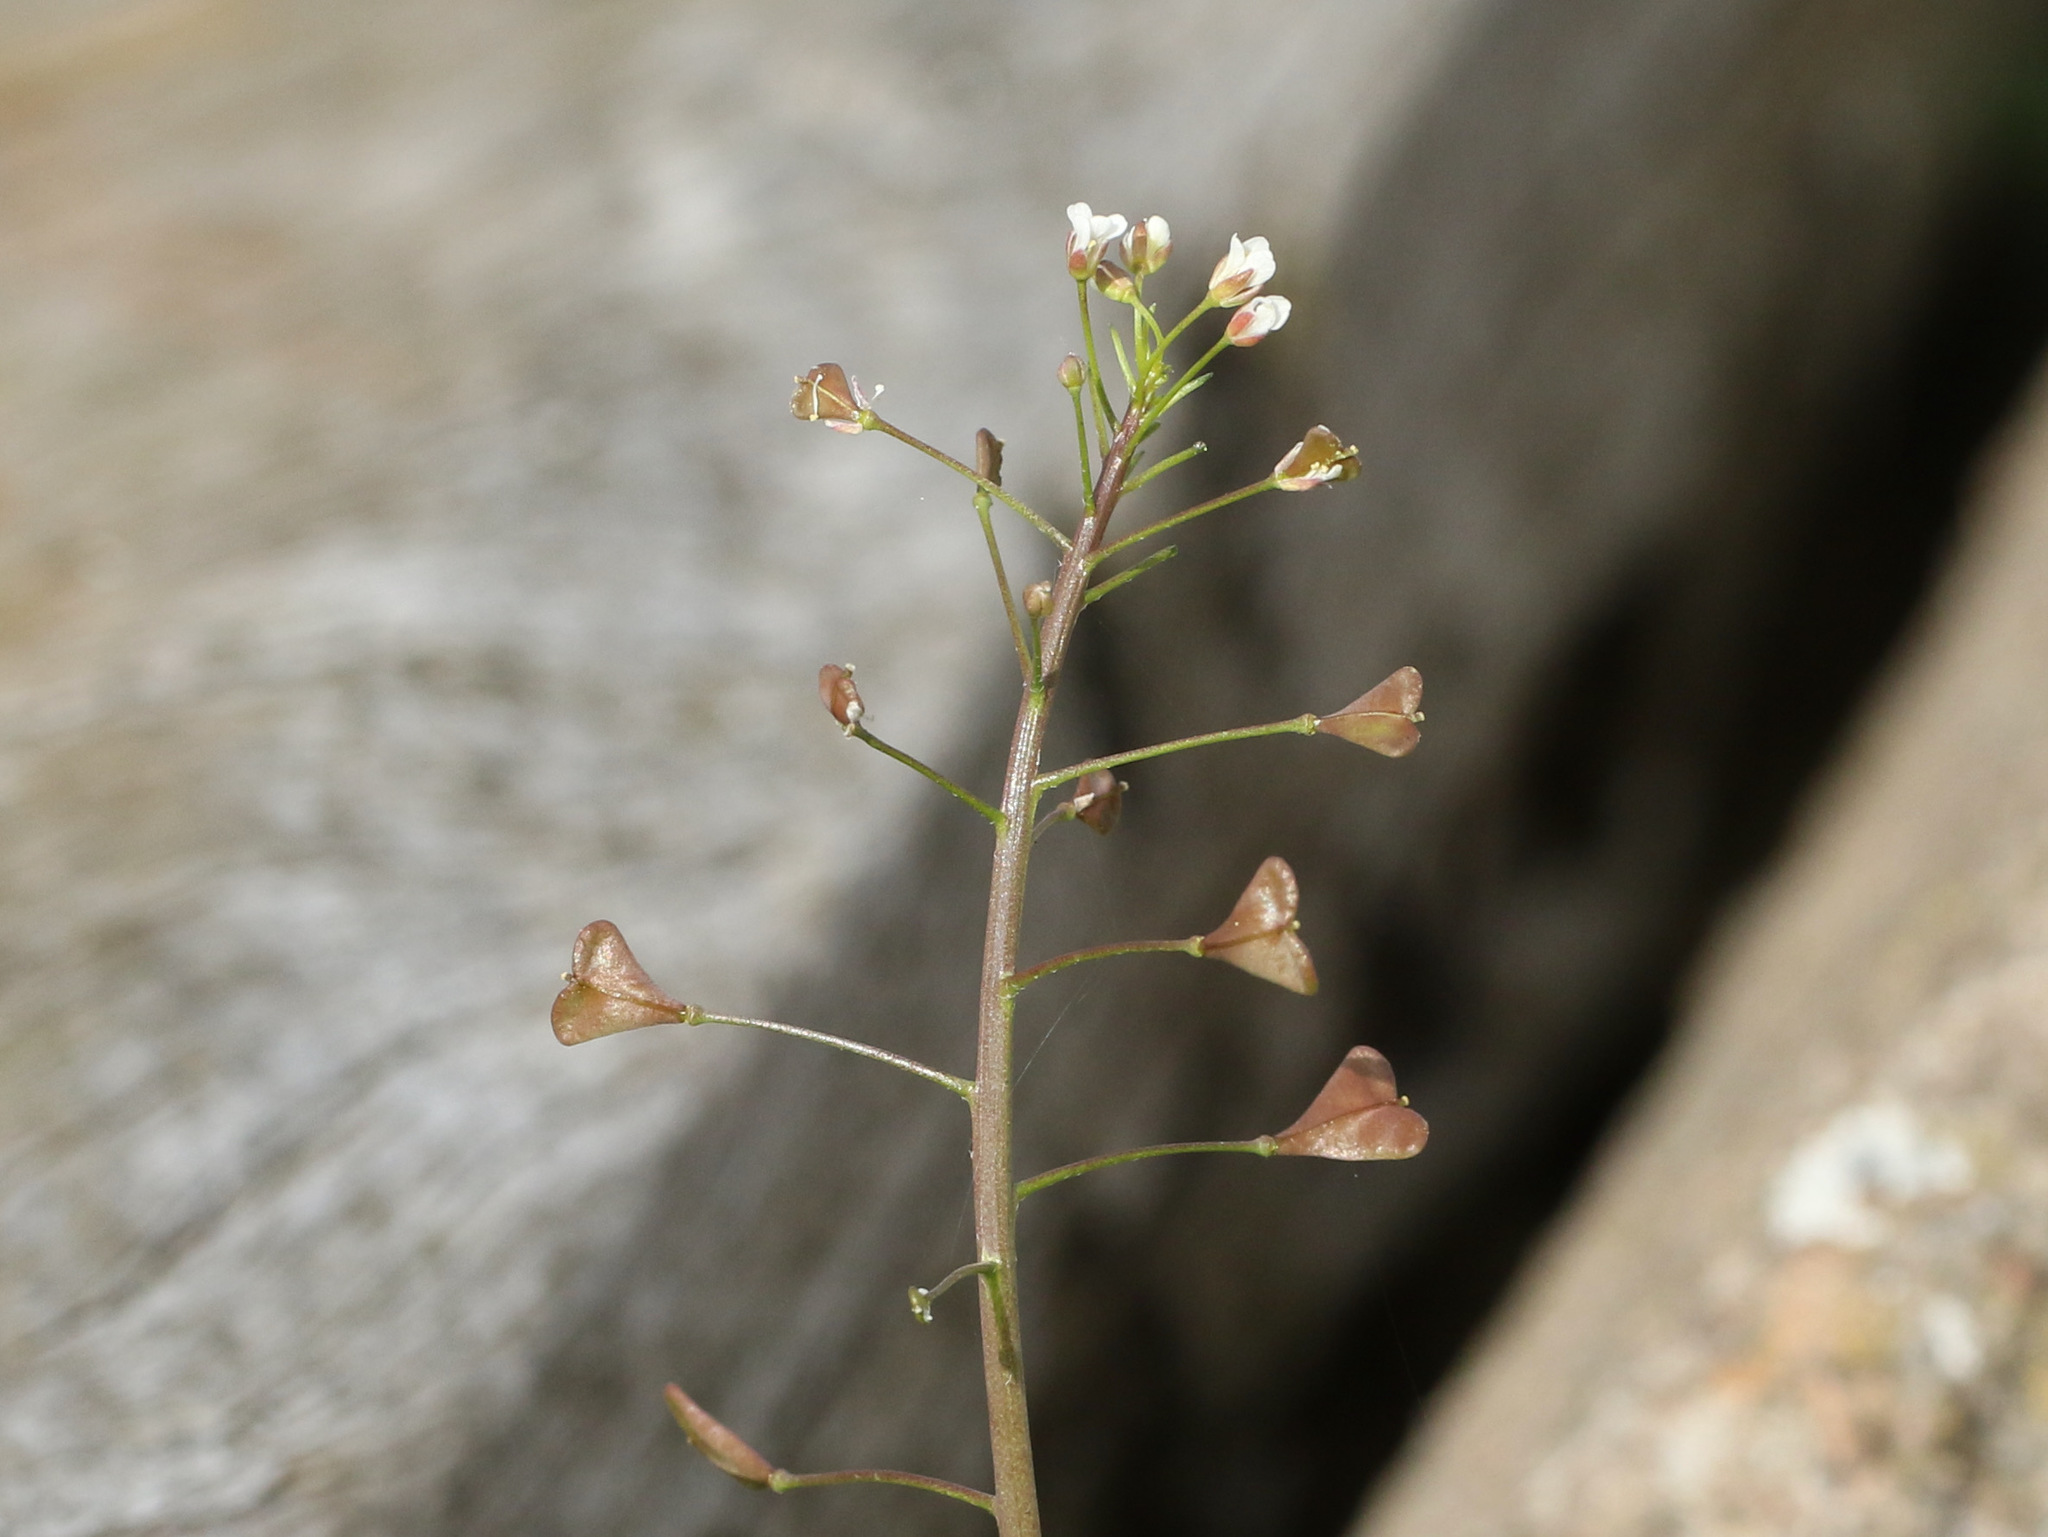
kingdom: Plantae
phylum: Tracheophyta
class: Magnoliopsida
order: Brassicales
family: Brassicaceae
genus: Capsella
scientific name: Capsella bursa-pastoris
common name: Shepherd's purse
